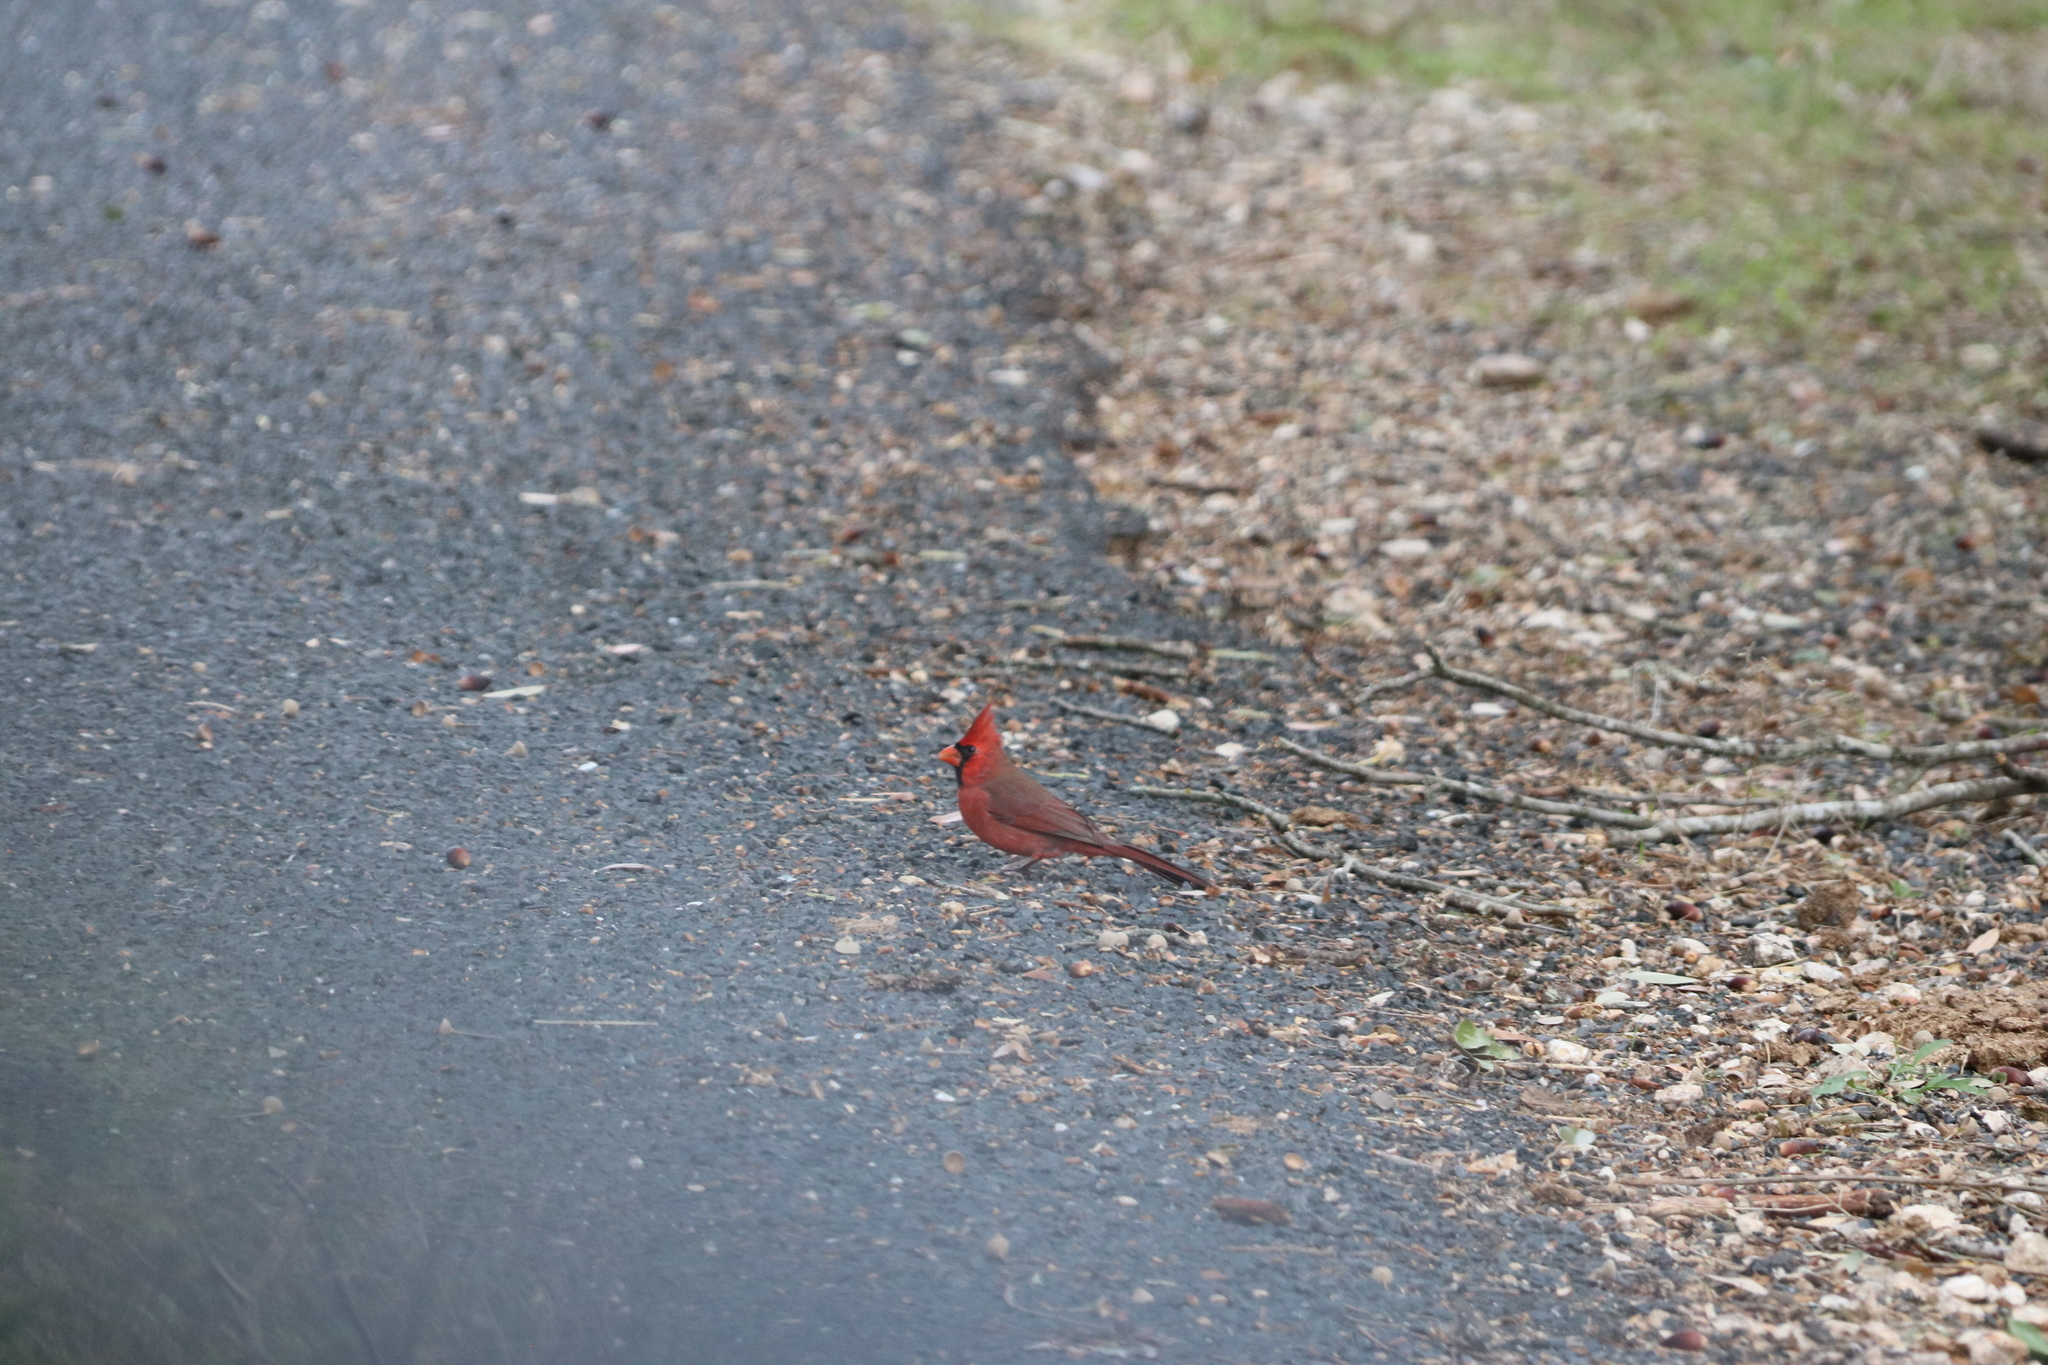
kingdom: Animalia
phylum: Chordata
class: Aves
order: Passeriformes
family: Cardinalidae
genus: Cardinalis
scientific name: Cardinalis cardinalis
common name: Northern cardinal
